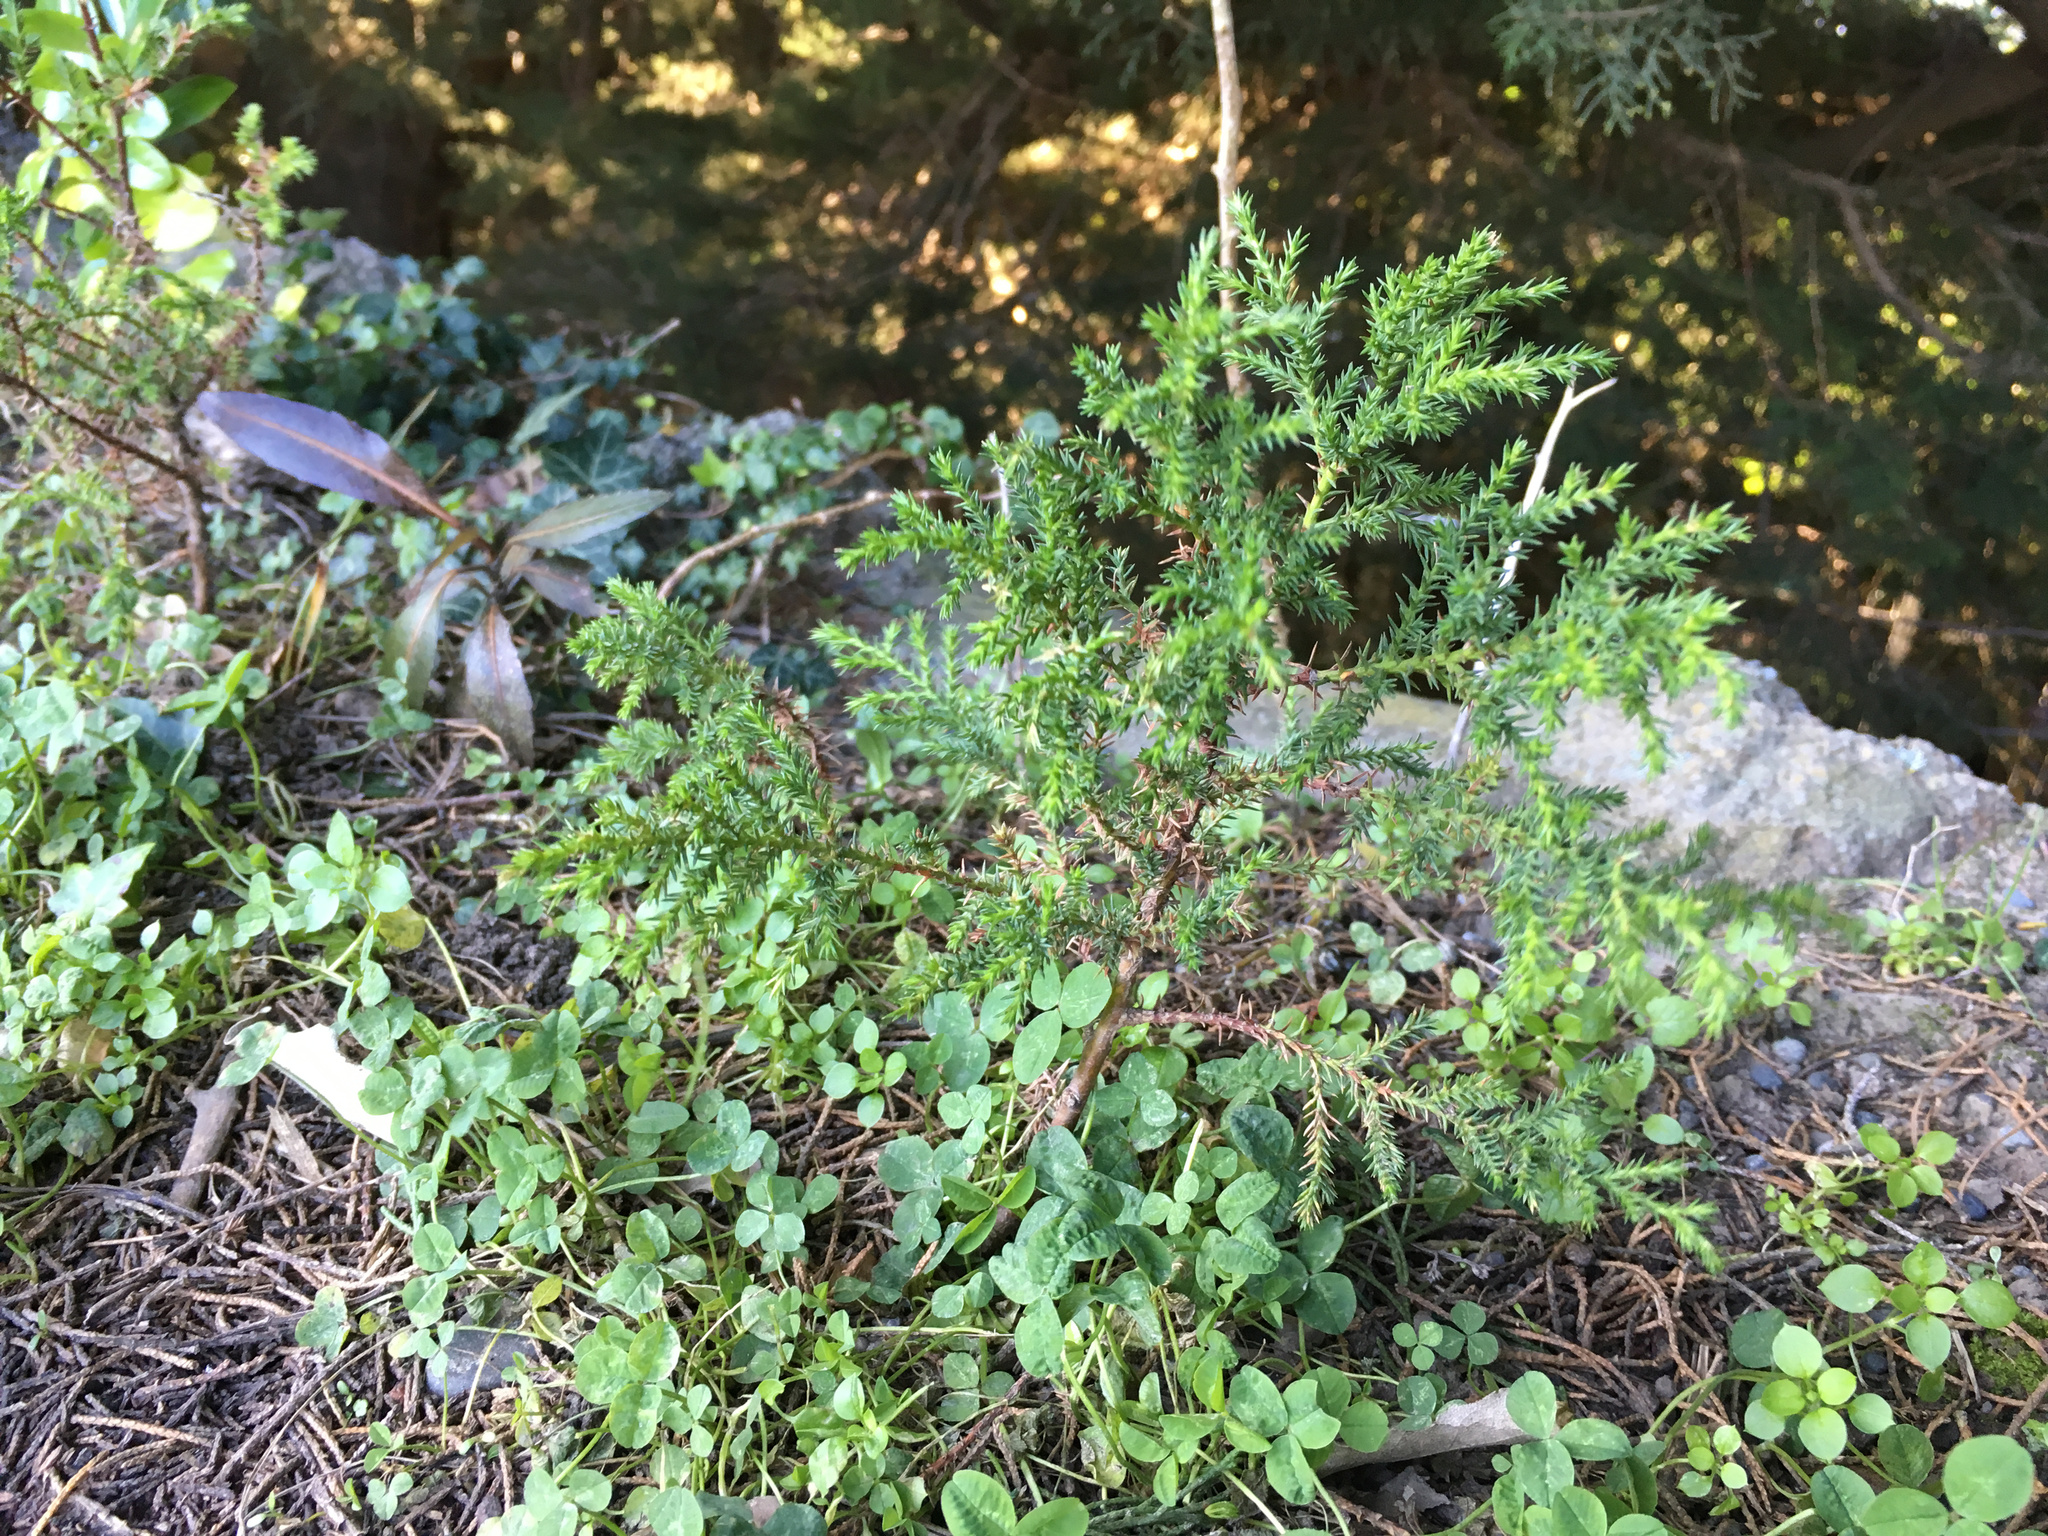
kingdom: Plantae
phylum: Tracheophyta
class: Pinopsida
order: Pinales
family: Cupressaceae
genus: Cupressus
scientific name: Cupressus macrocarpa
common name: Monterey cypress
